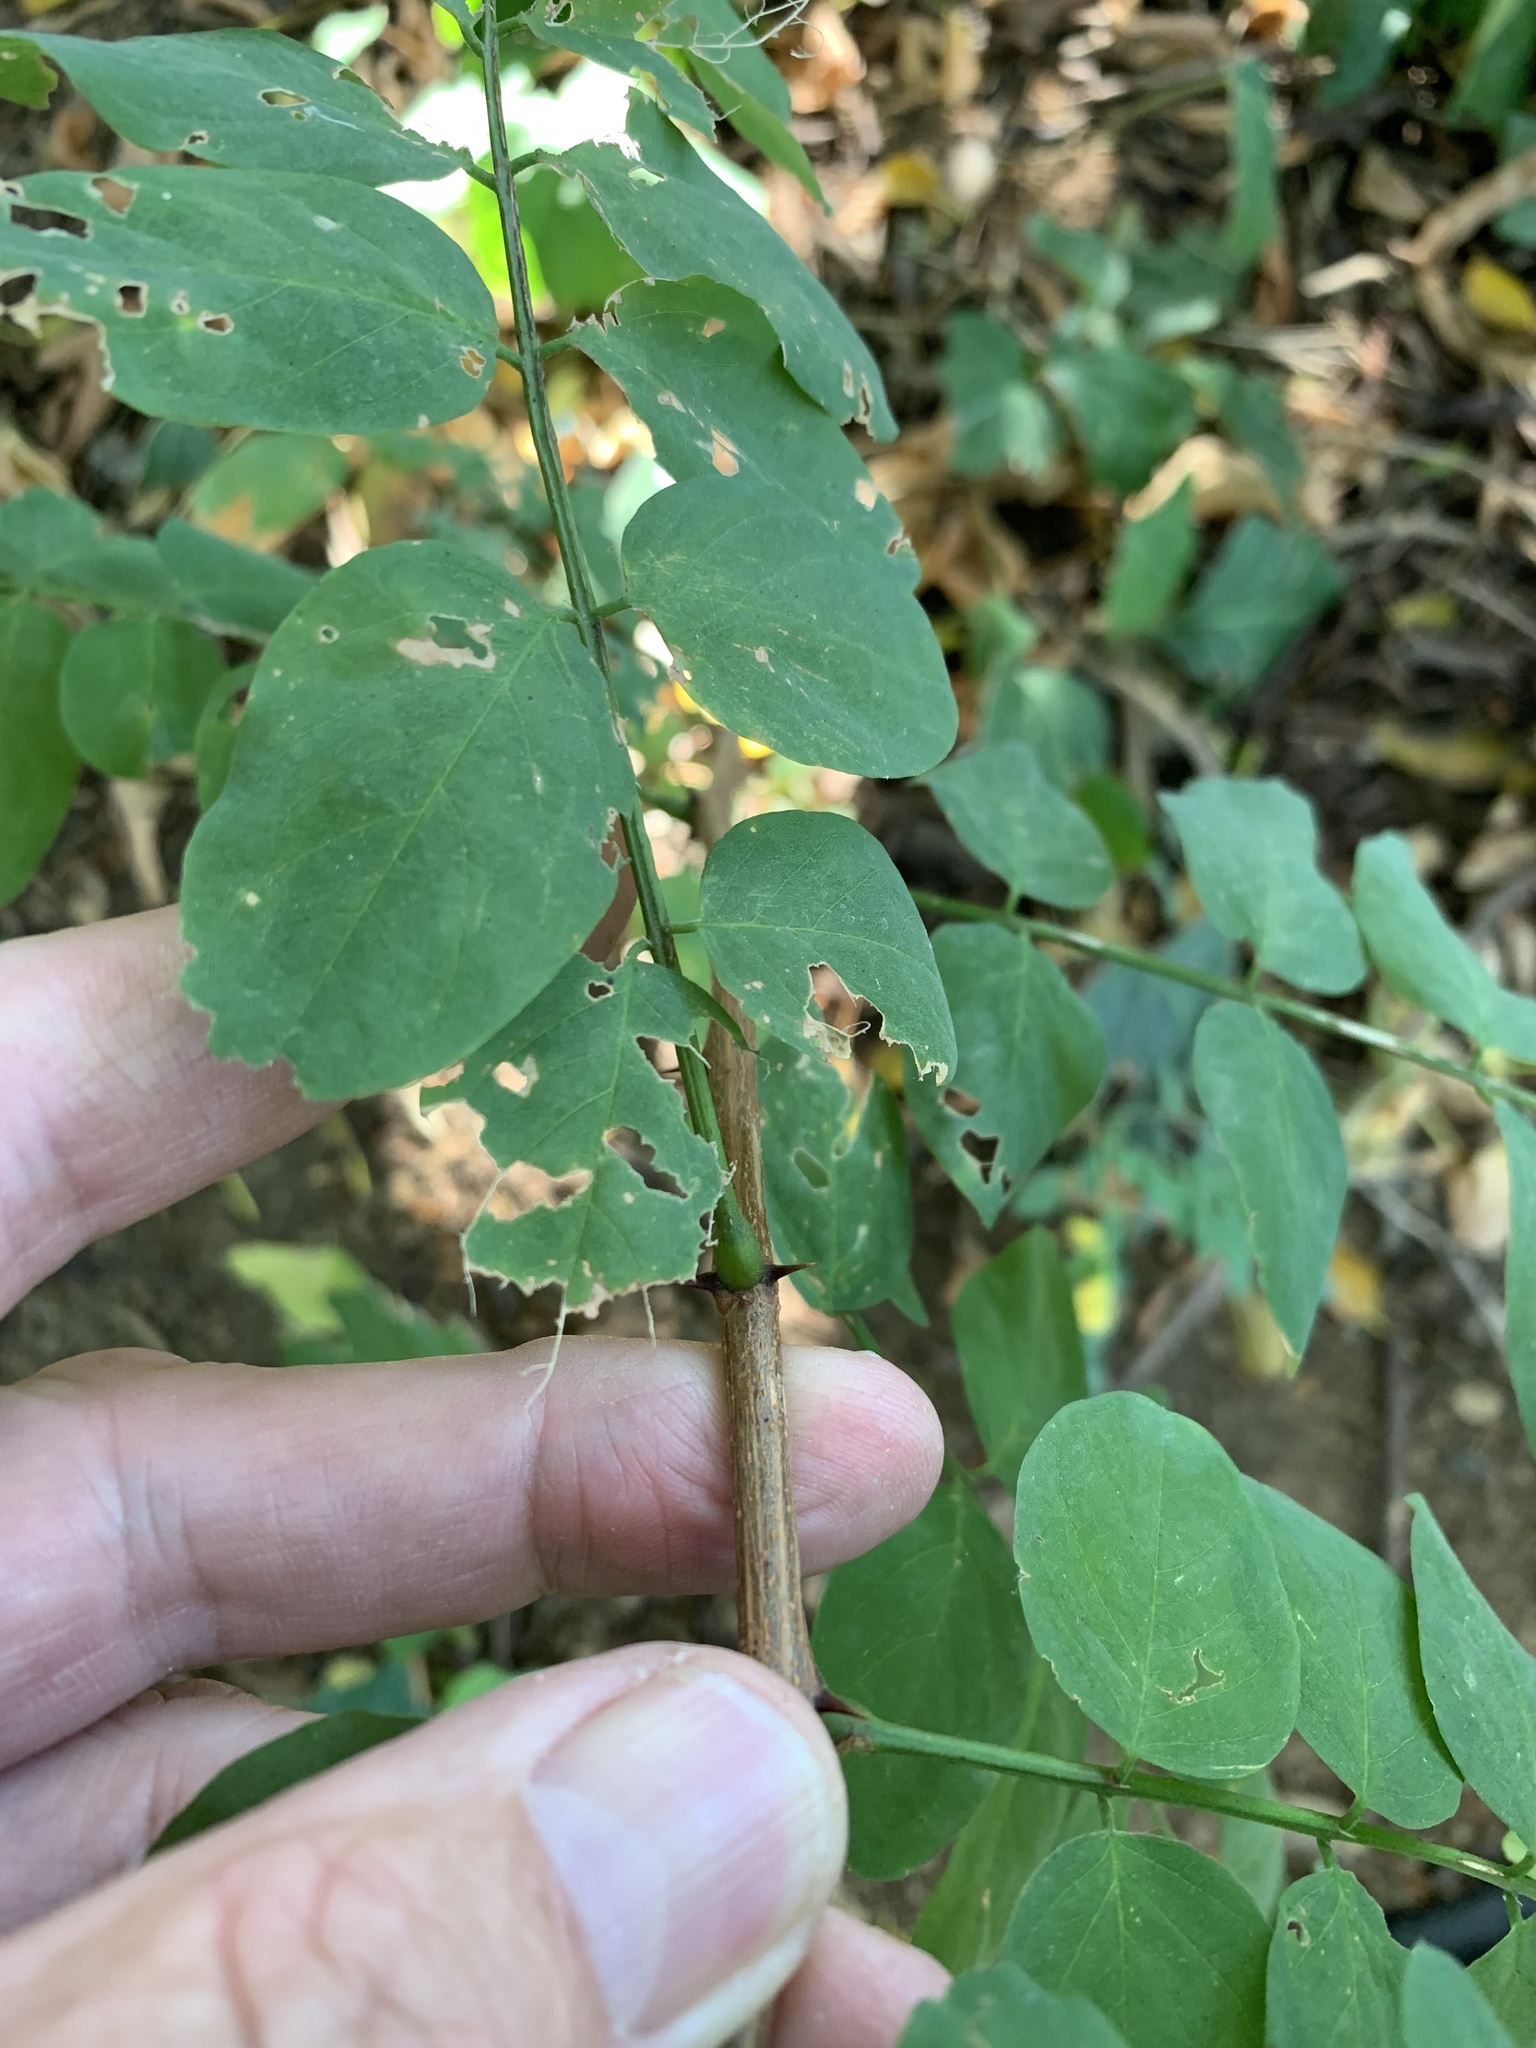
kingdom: Plantae
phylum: Tracheophyta
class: Magnoliopsida
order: Fabales
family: Fabaceae
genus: Robinia
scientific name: Robinia pseudoacacia
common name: Black locust
